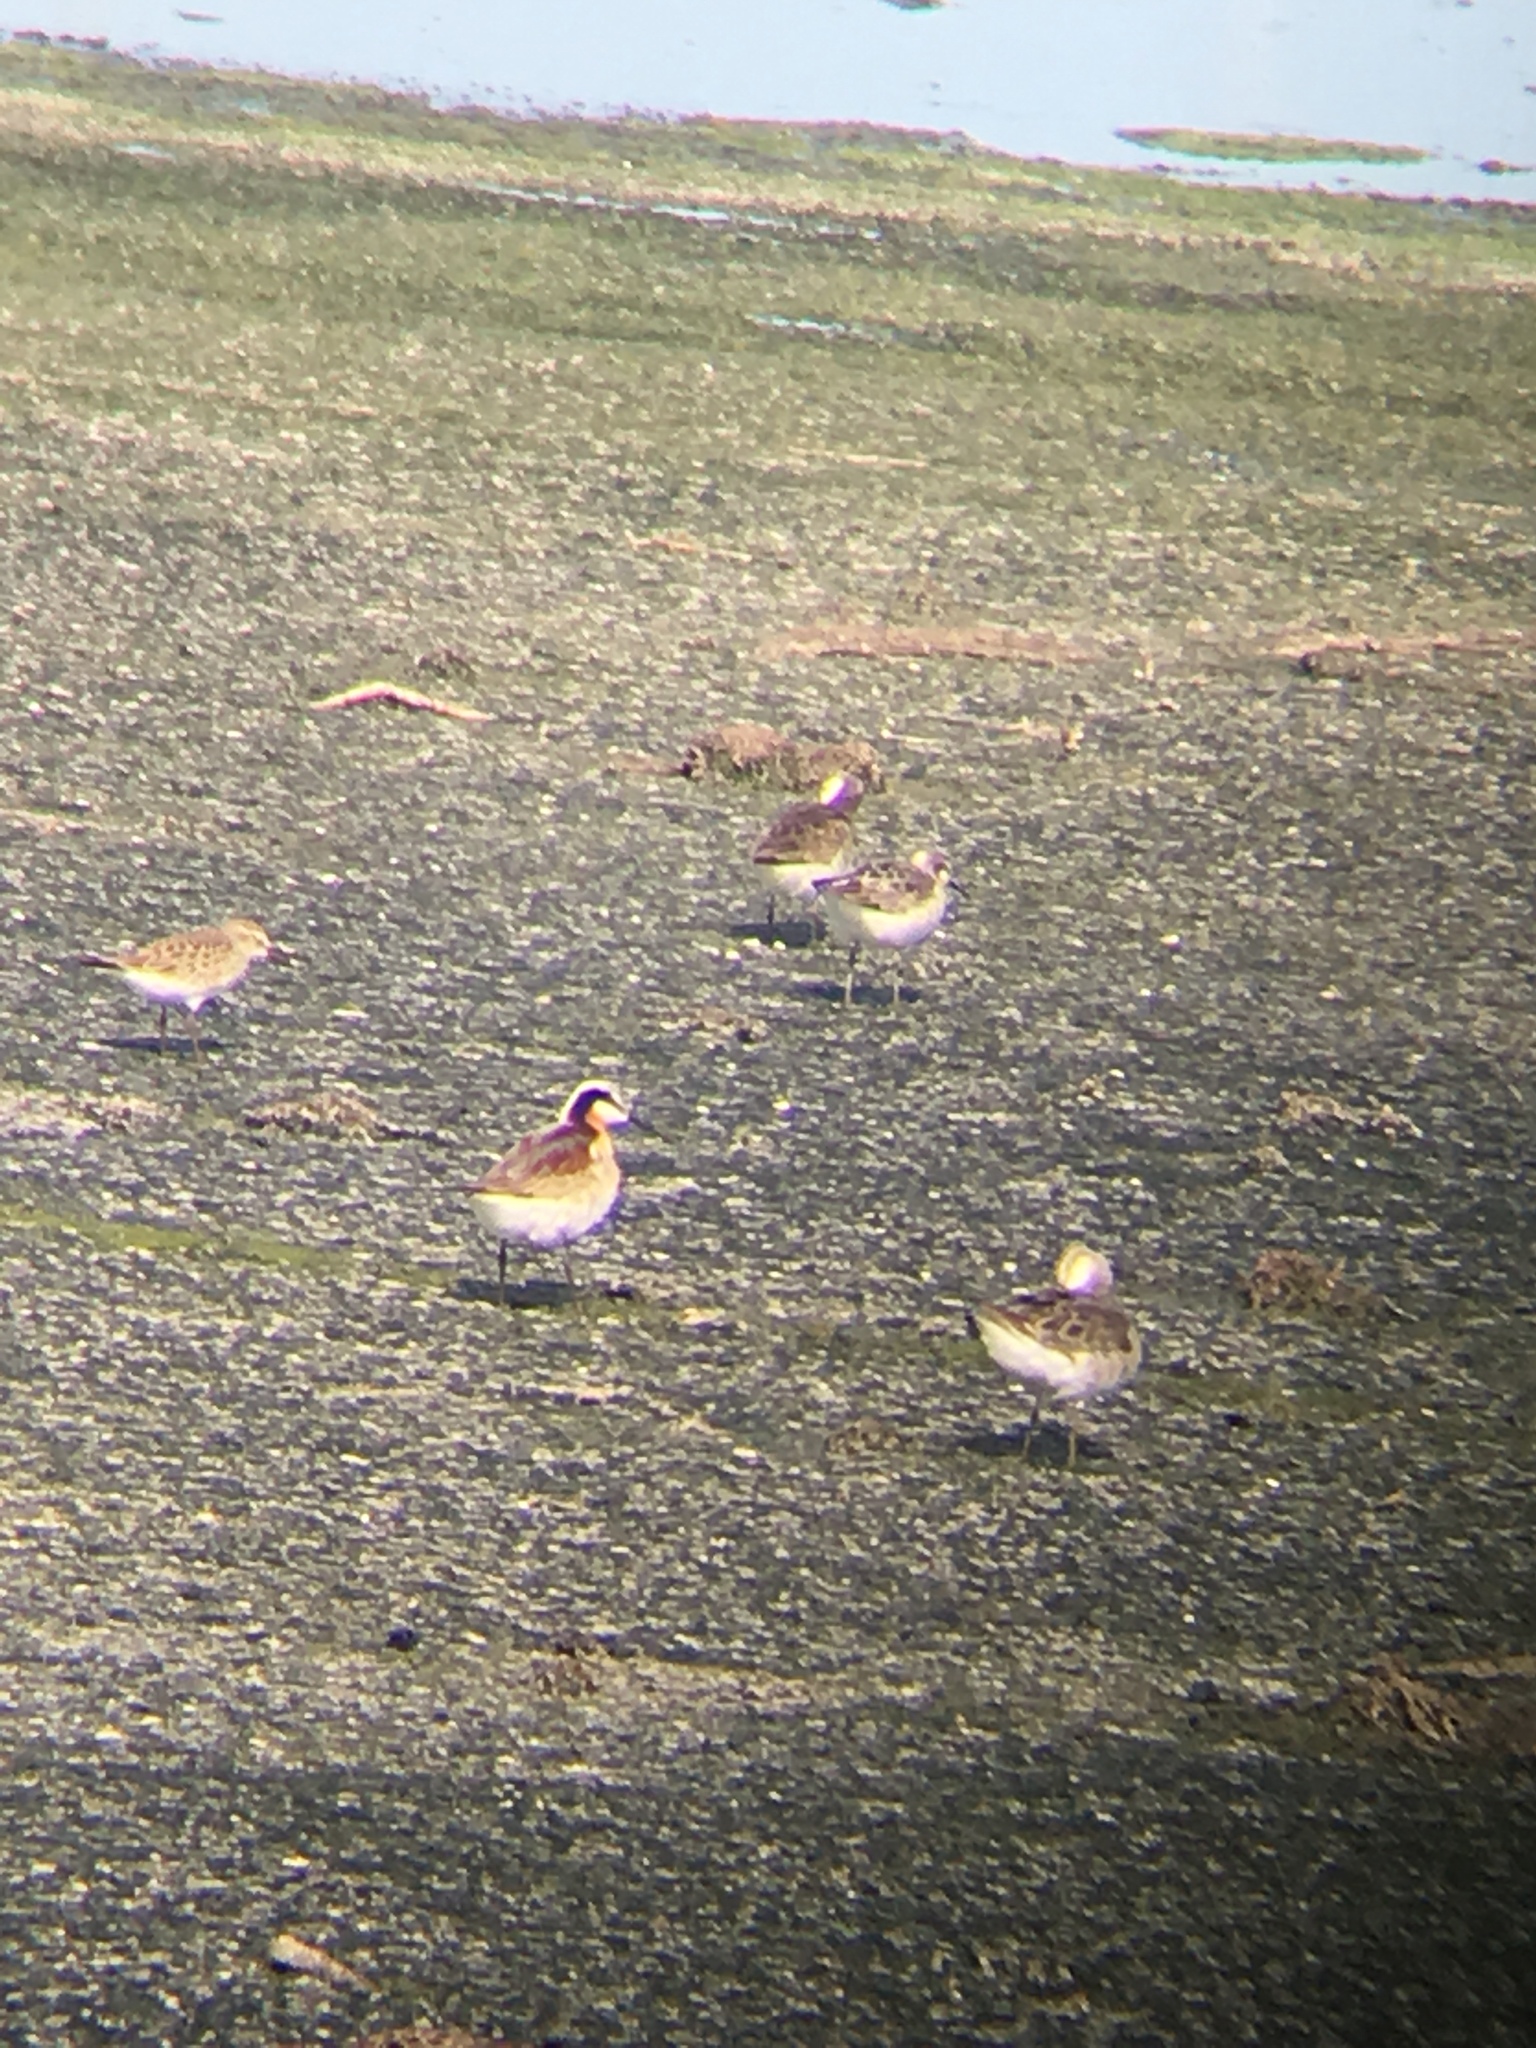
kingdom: Animalia
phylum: Chordata
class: Aves
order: Charadriiformes
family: Scolopacidae
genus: Phalaropus
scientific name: Phalaropus tricolor
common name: Wilson's phalarope
